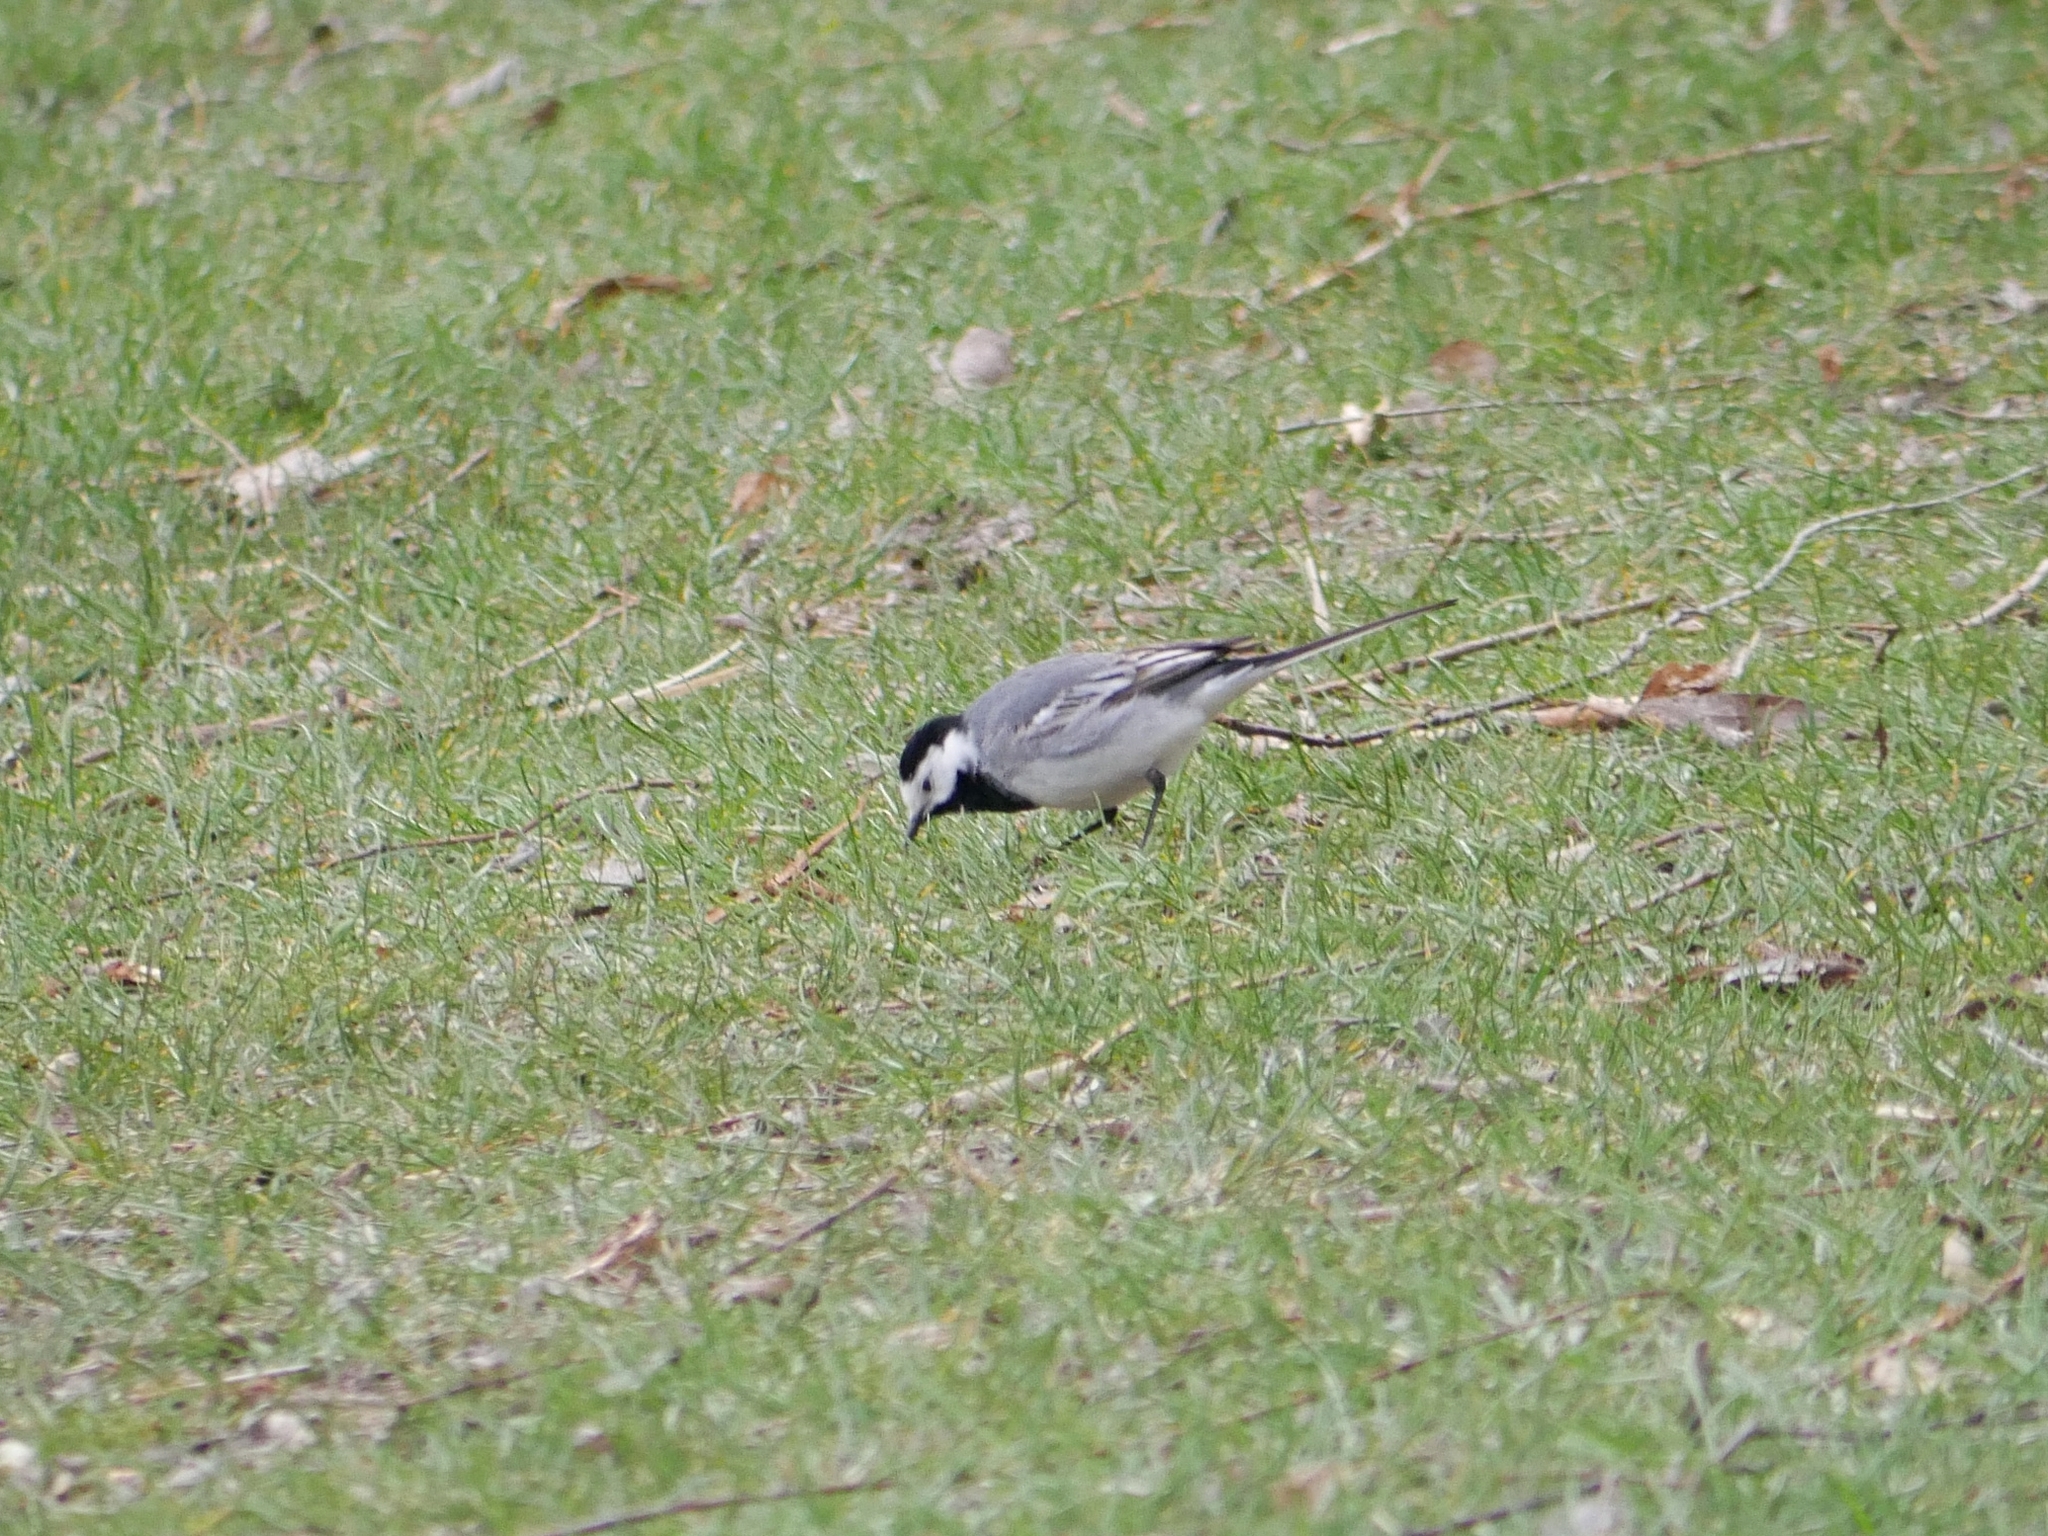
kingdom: Animalia
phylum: Chordata
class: Aves
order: Passeriformes
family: Motacillidae
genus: Motacilla
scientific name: Motacilla alba
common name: White wagtail
